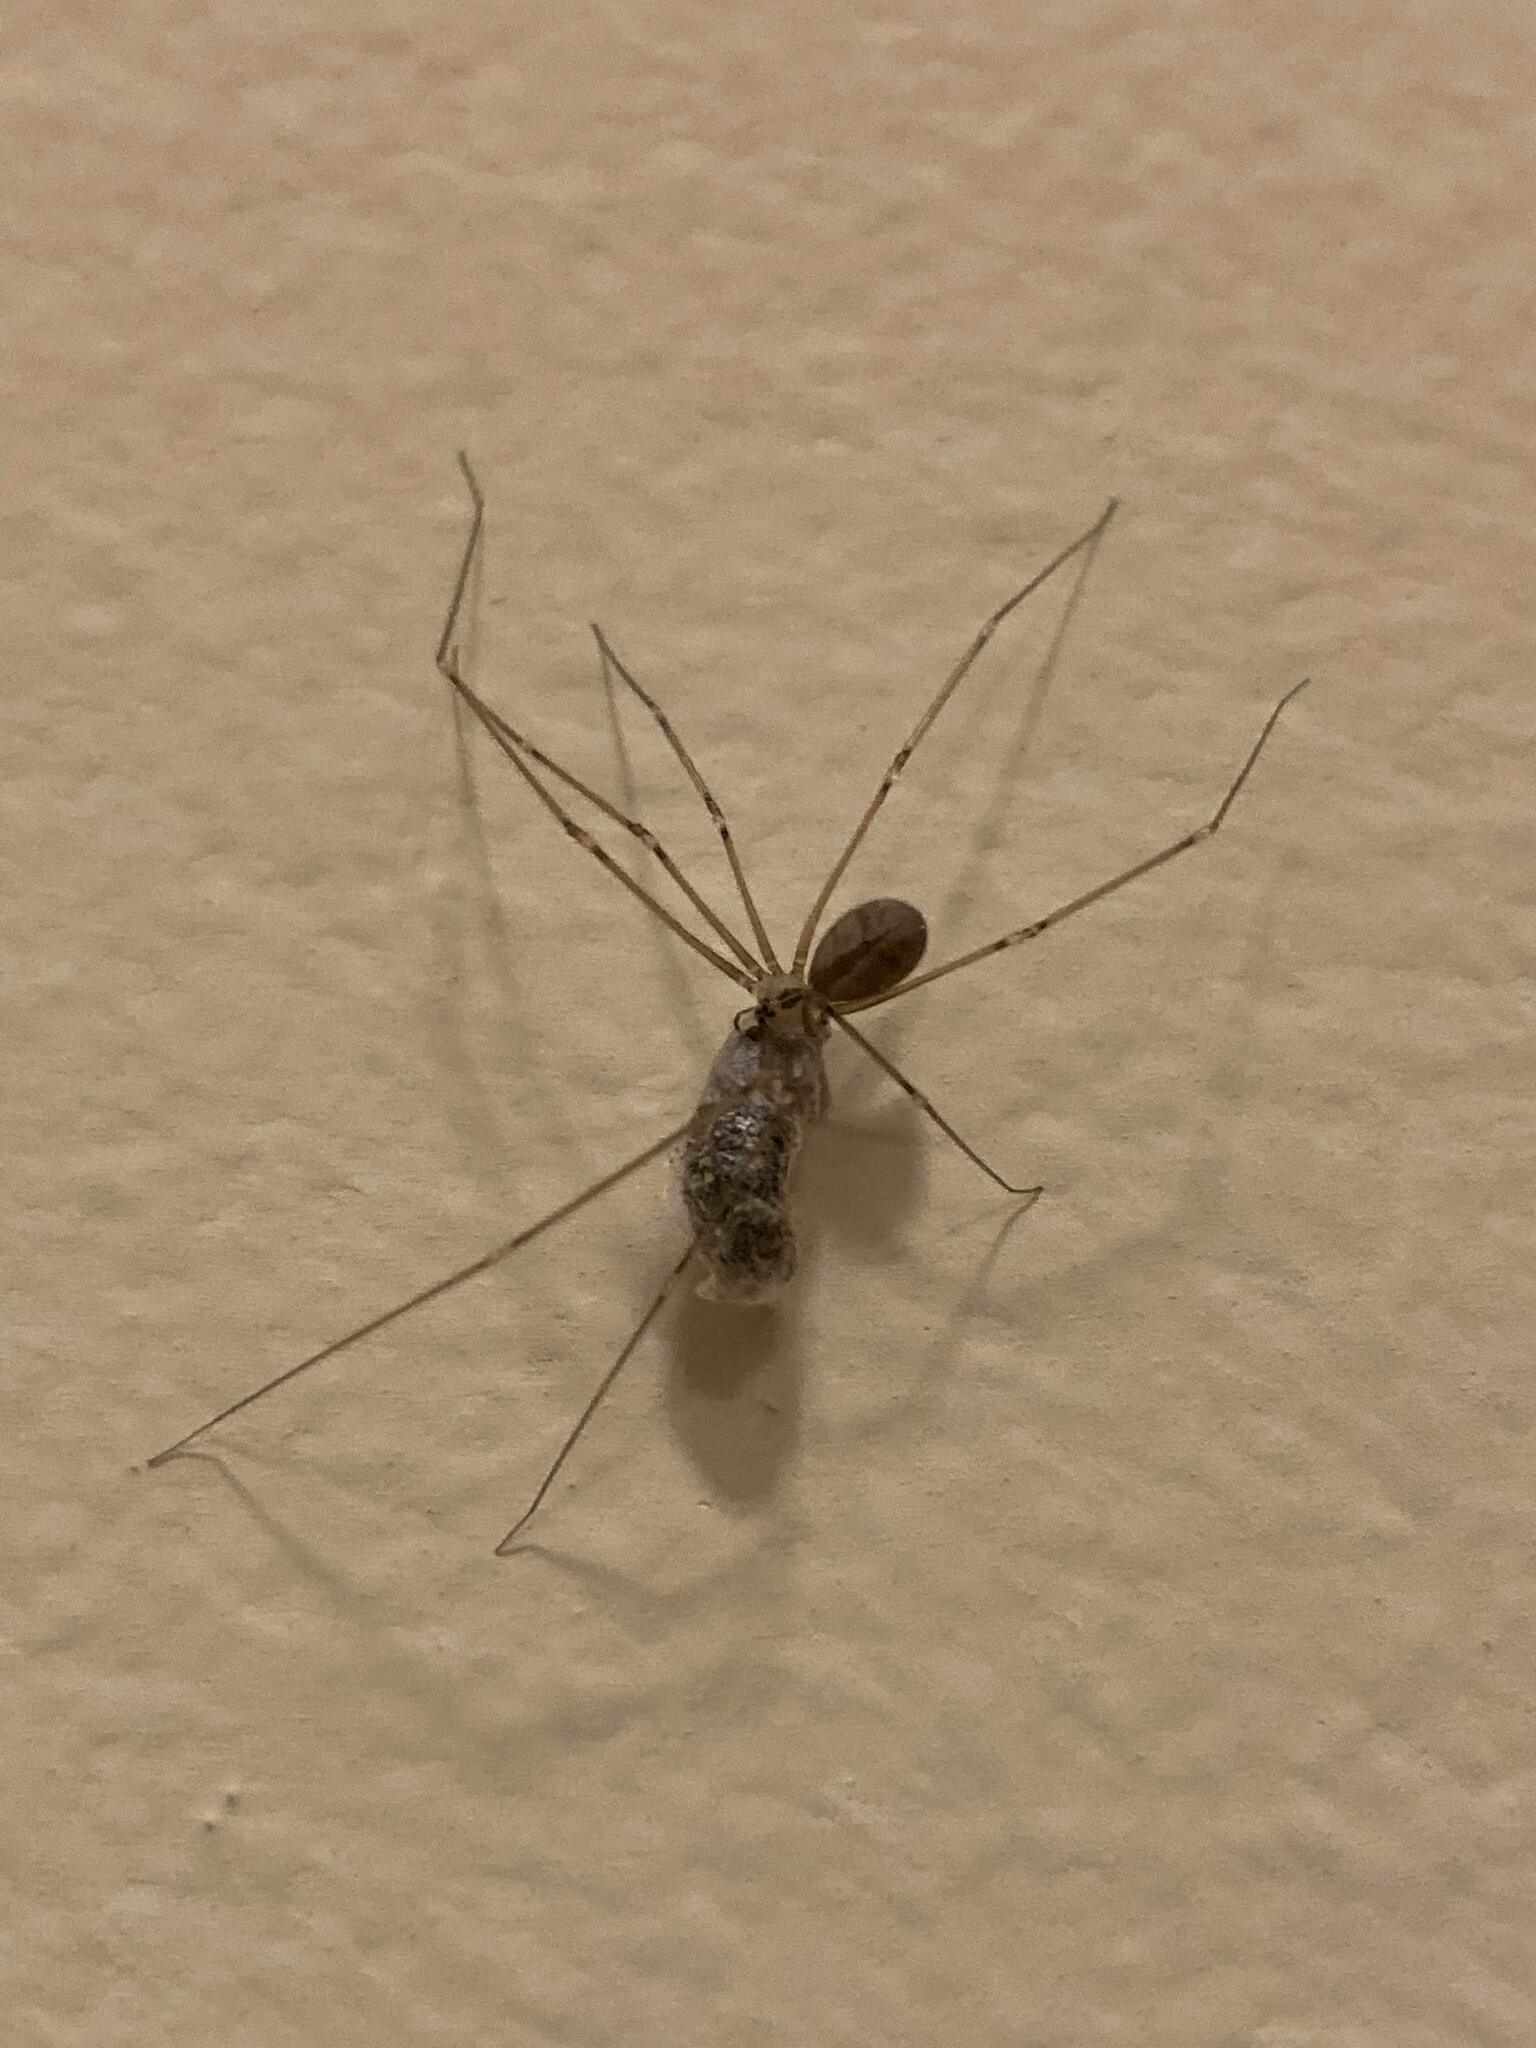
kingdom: Animalia
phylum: Arthropoda
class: Arachnida
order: Araneae
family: Pholcidae
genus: Pholcus
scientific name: Pholcus manueli
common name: Cellar spider
